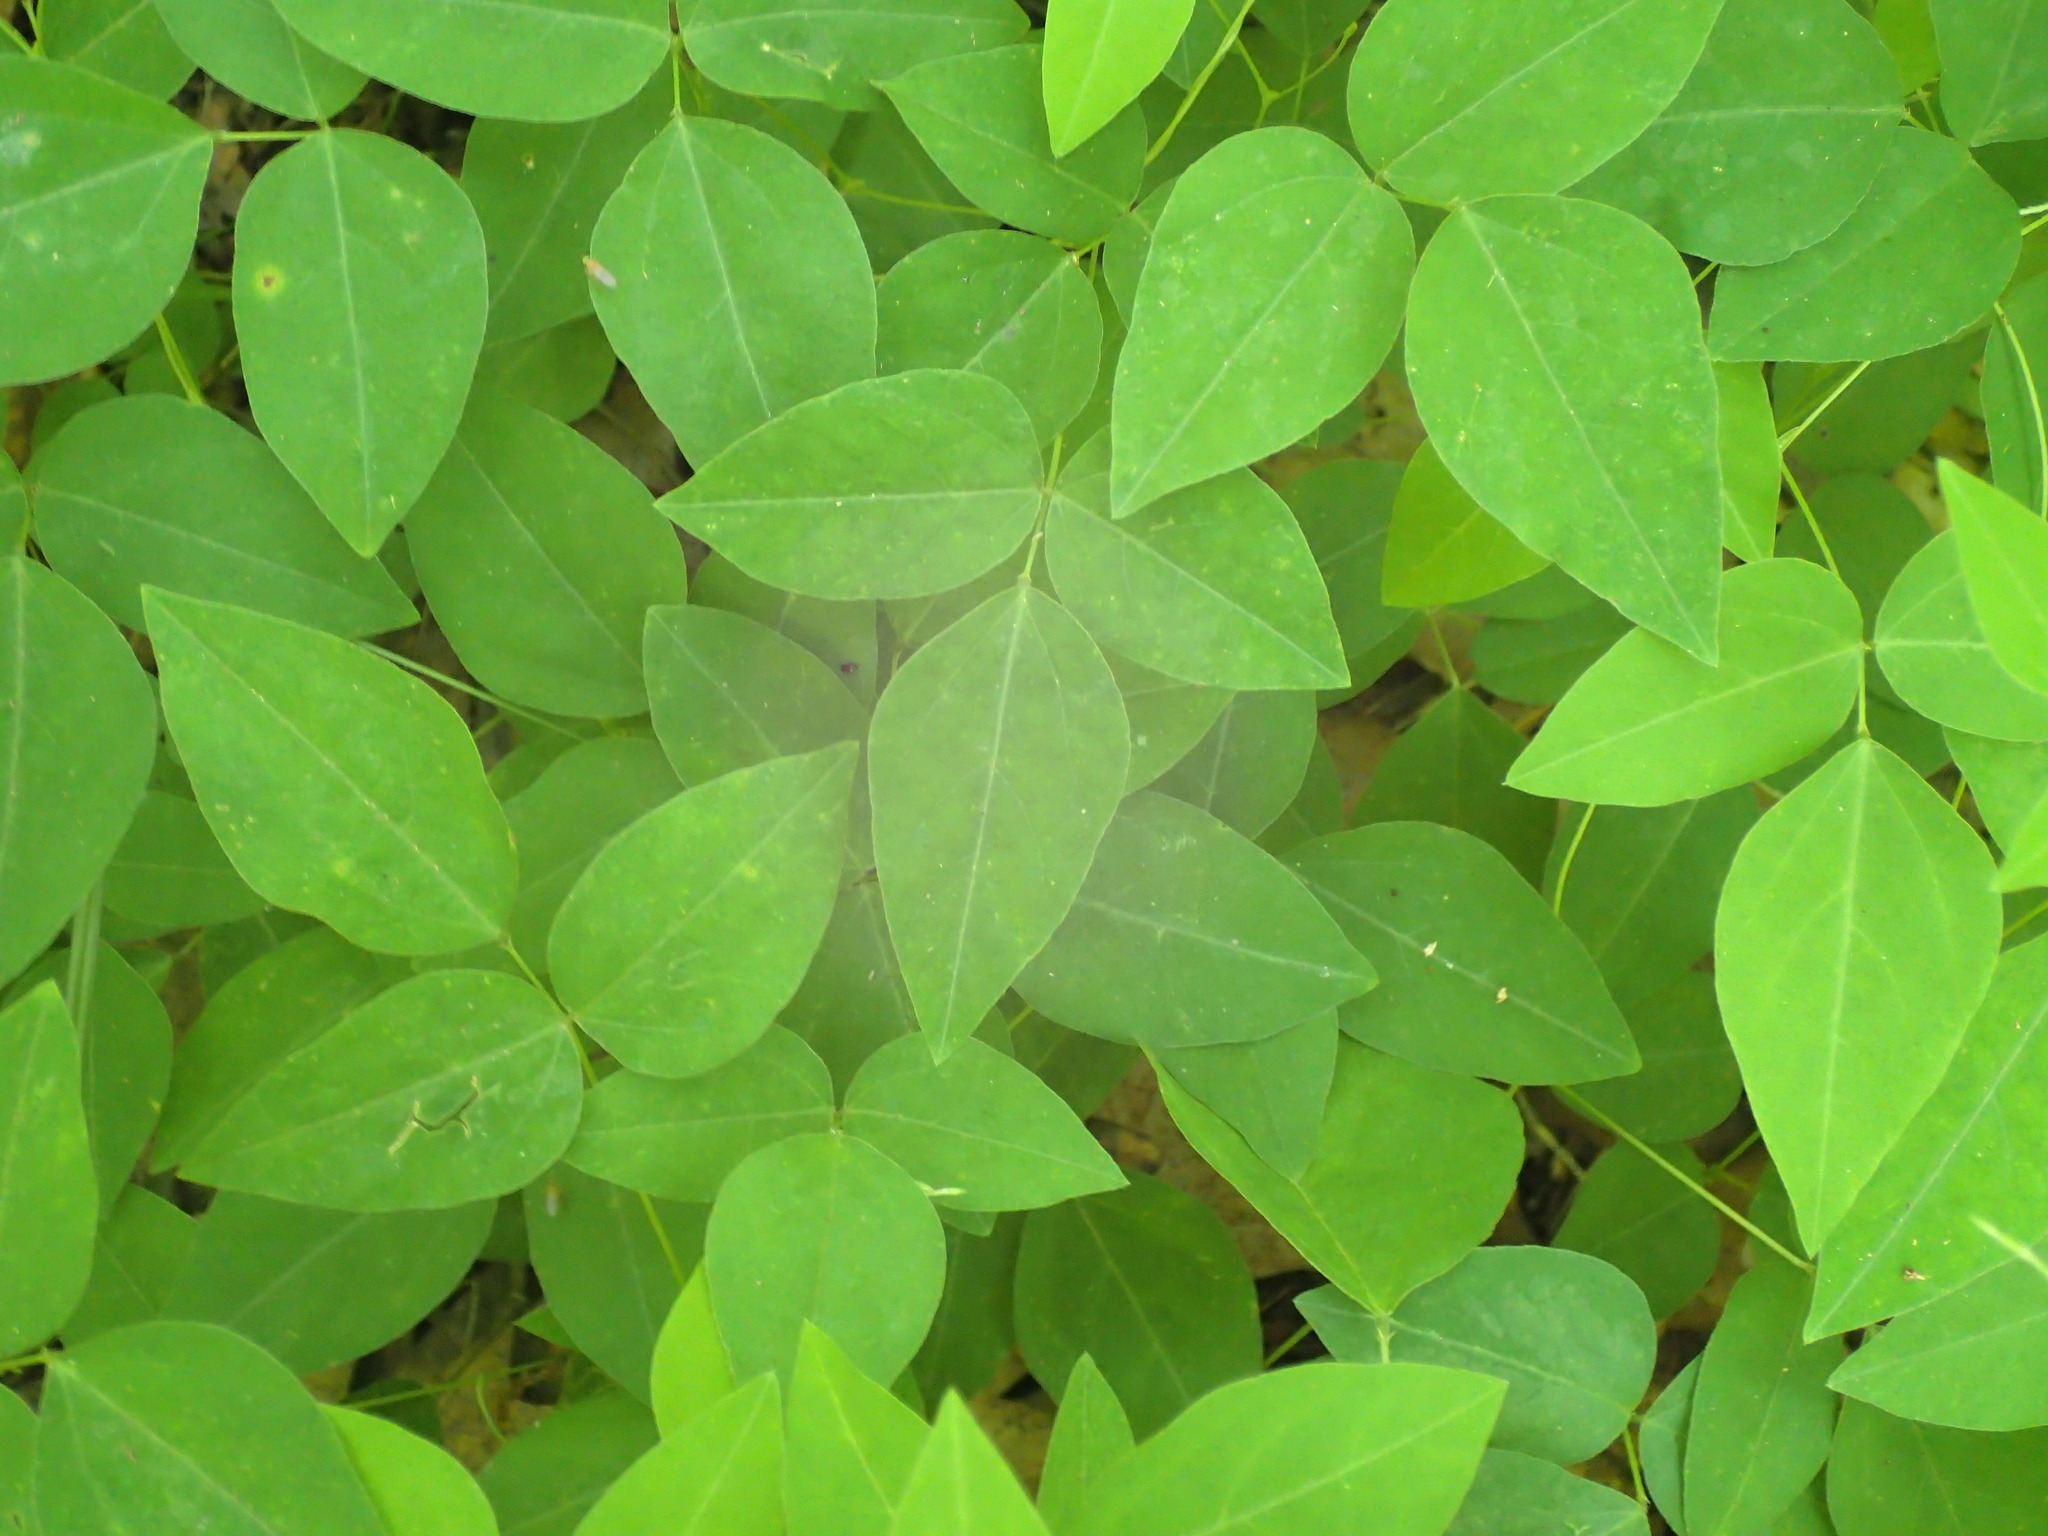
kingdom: Plantae
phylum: Tracheophyta
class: Magnoliopsida
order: Fabales
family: Fabaceae
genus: Amphicarpaea
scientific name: Amphicarpaea bracteata
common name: American hog peanut
